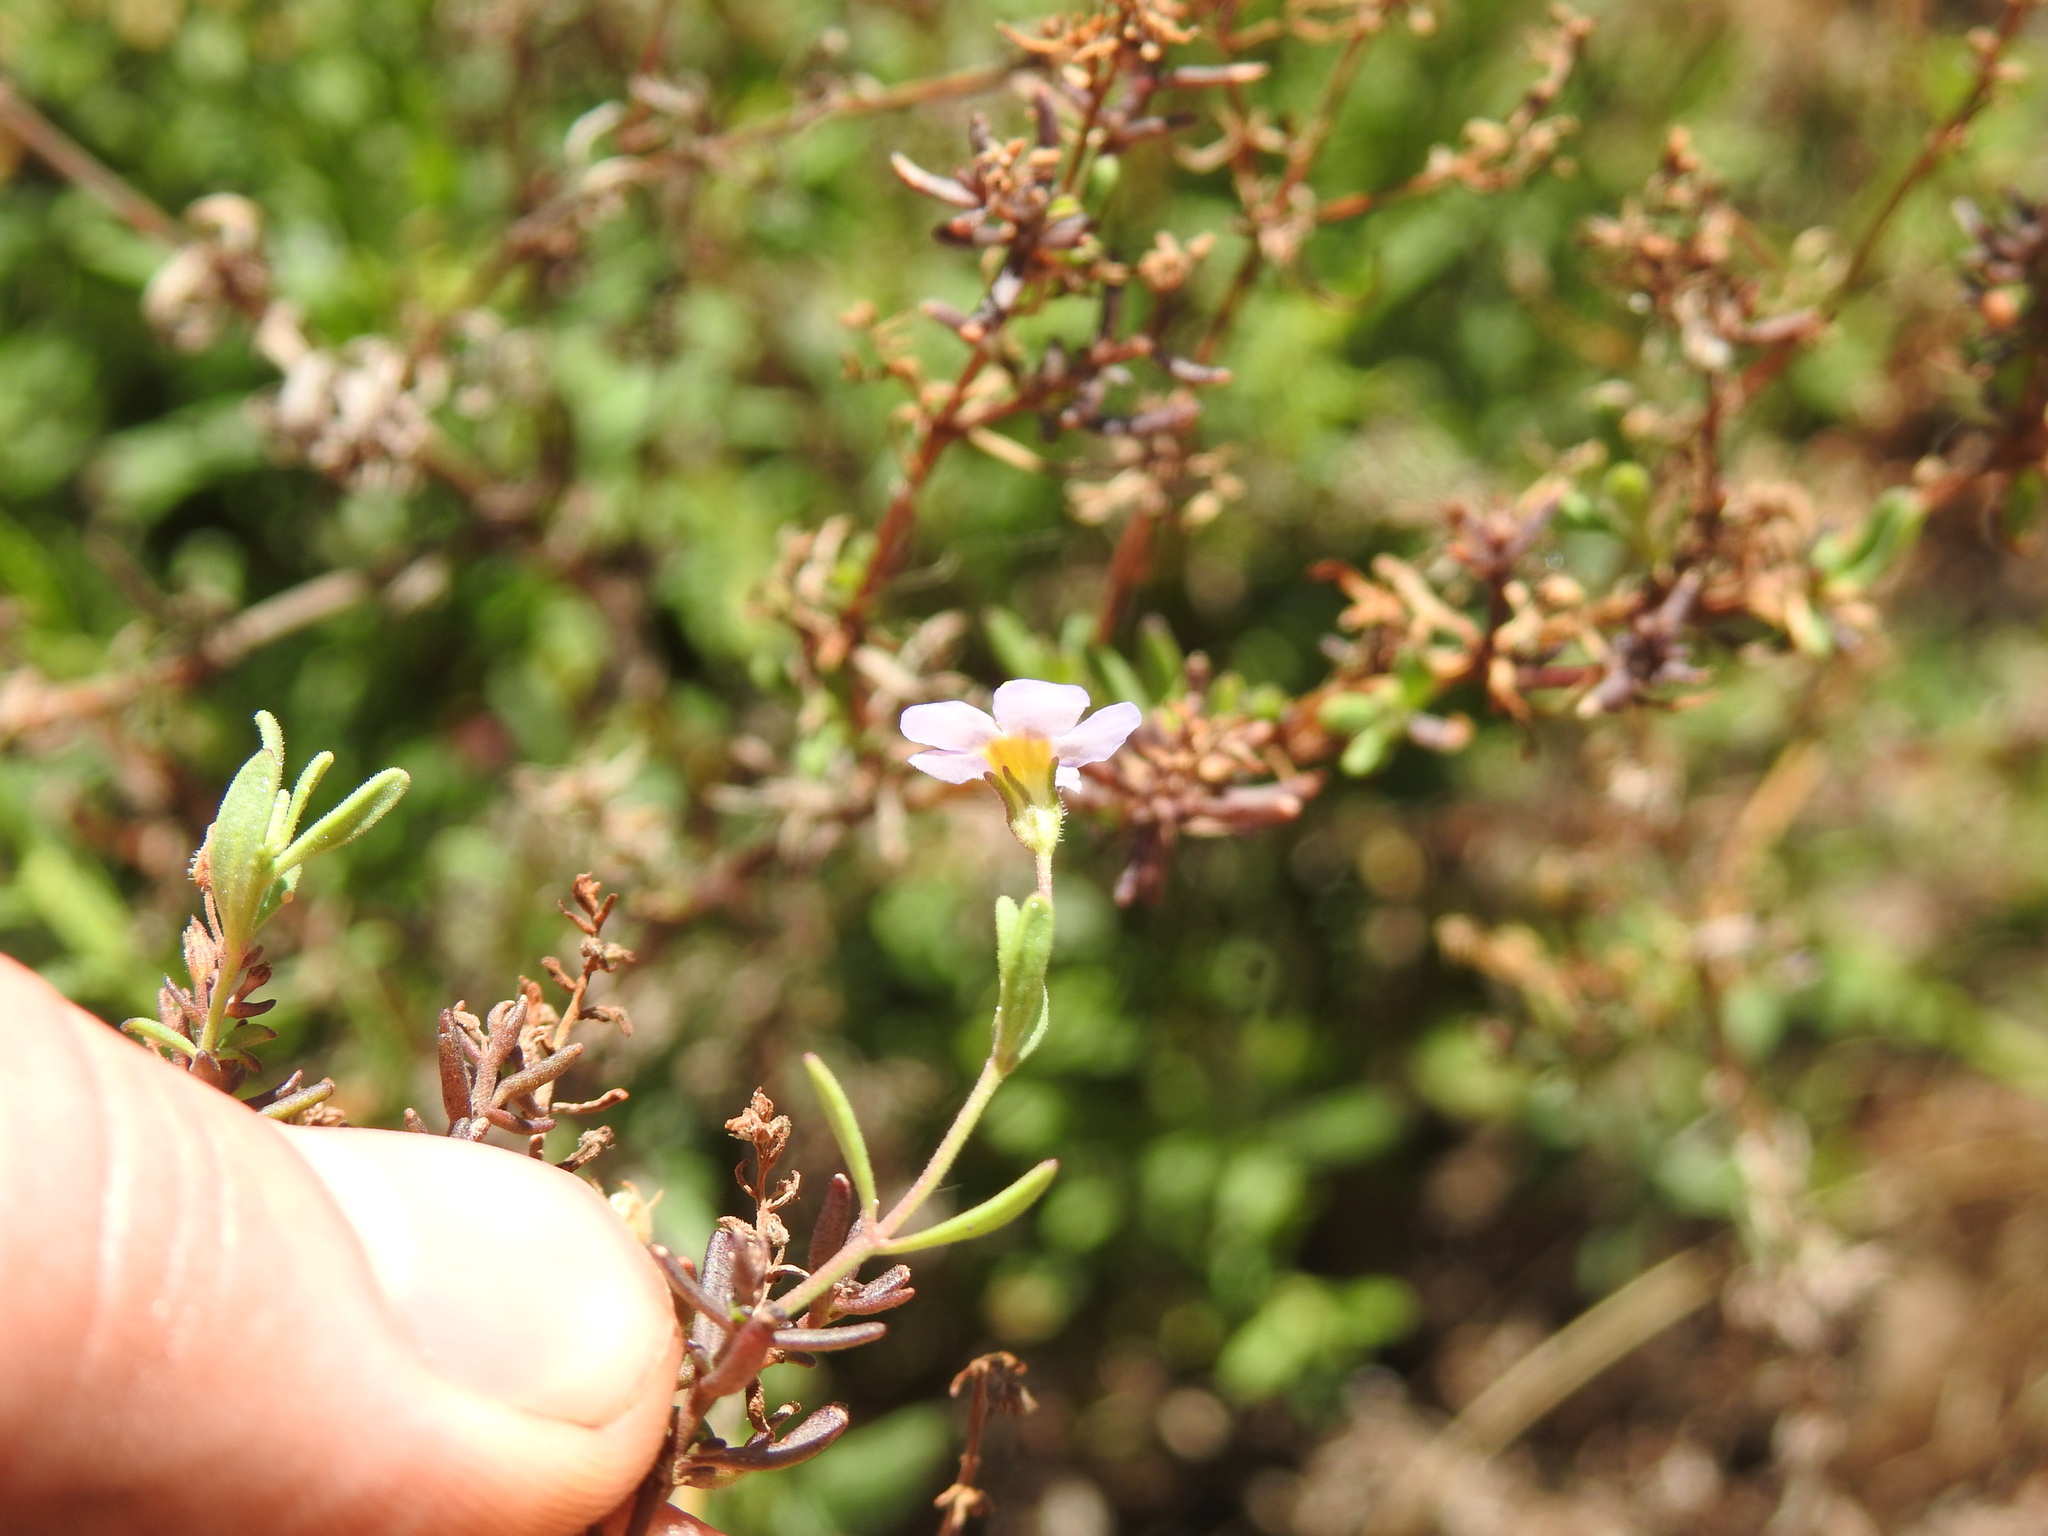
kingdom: Plantae
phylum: Tracheophyta
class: Magnoliopsida
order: Lamiales
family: Scrophulariaceae
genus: Chaenostoma
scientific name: Chaenostoma leve
